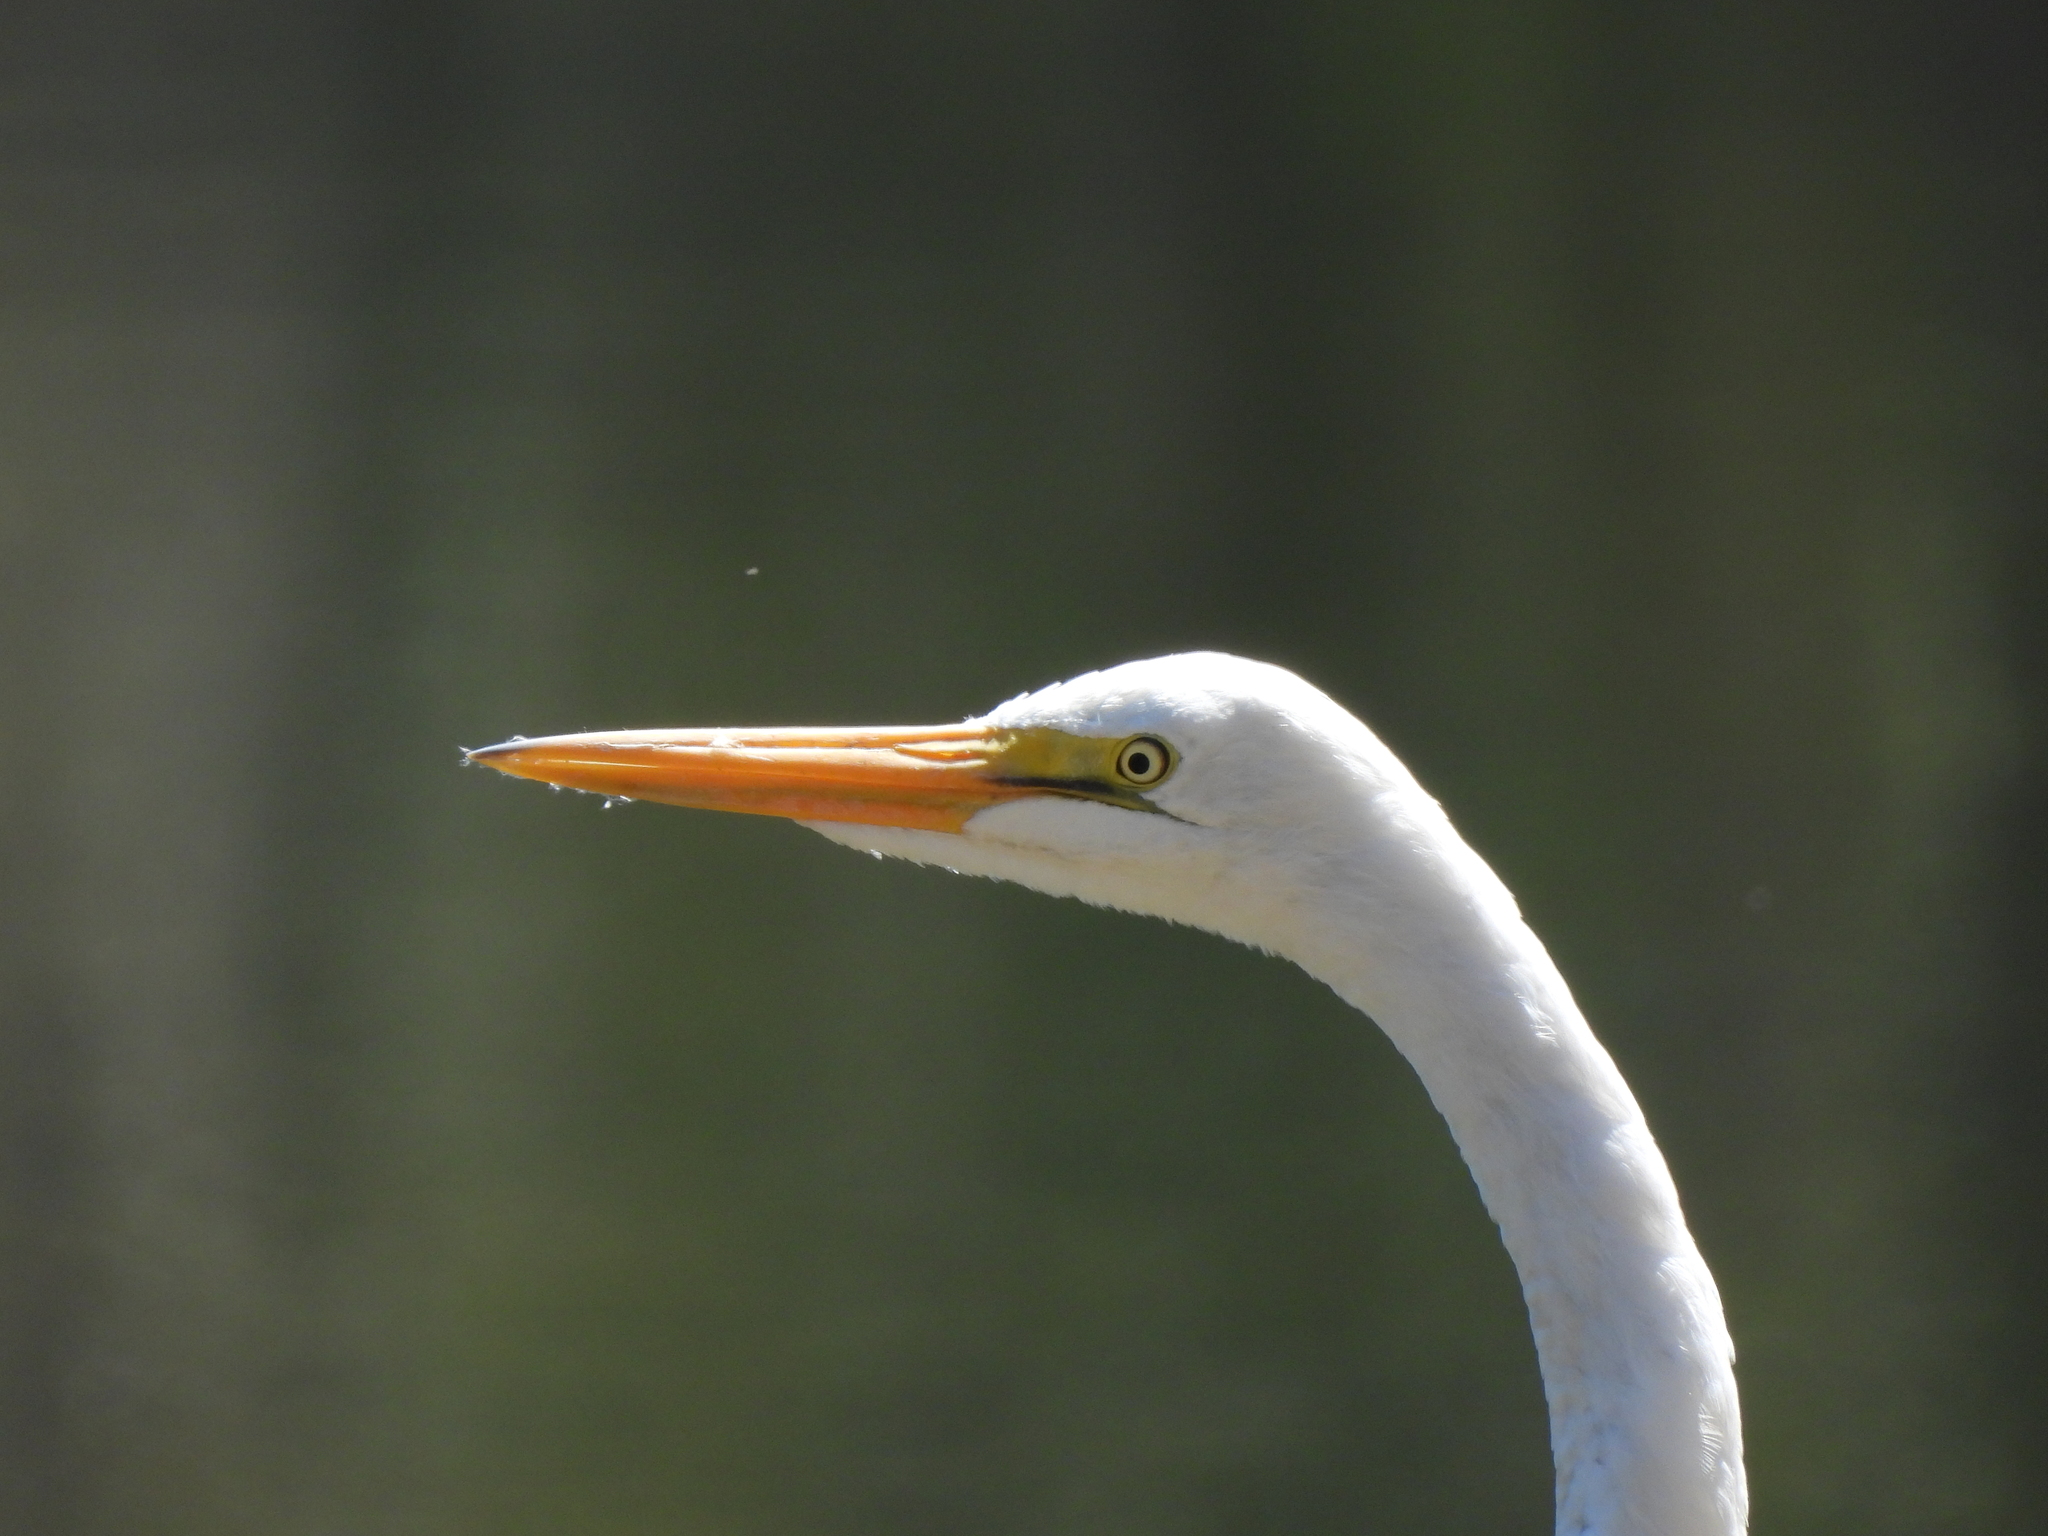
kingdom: Animalia
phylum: Chordata
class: Aves
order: Pelecaniformes
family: Ardeidae
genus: Ardea
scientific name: Ardea alba
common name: Great egret
